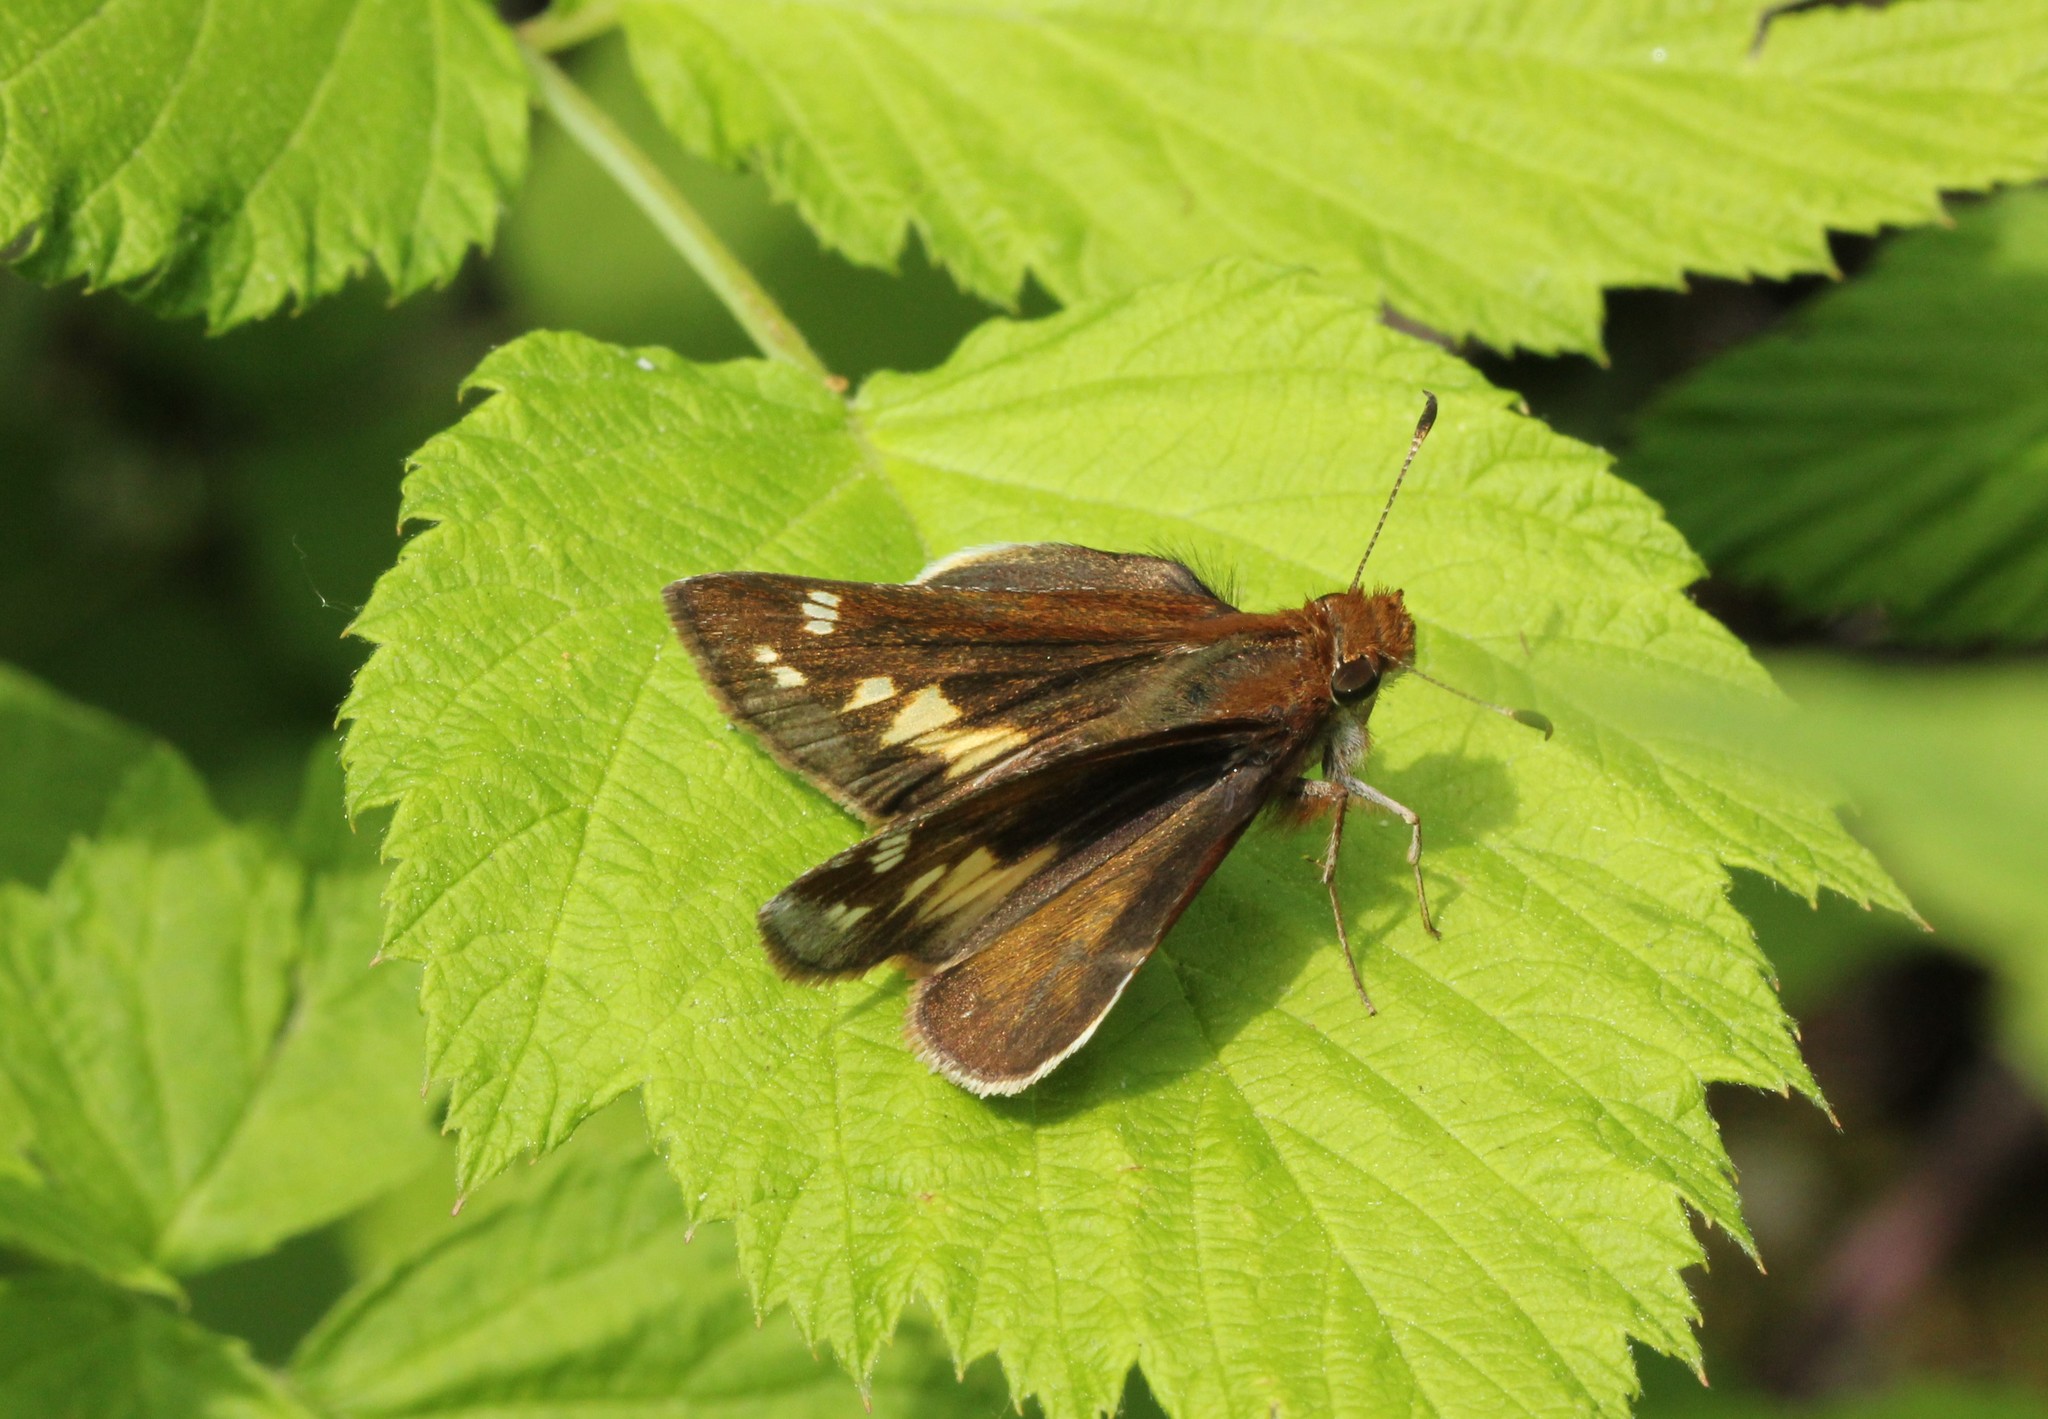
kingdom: Animalia
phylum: Arthropoda
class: Insecta
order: Lepidoptera
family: Hesperiidae
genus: Lon
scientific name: Lon zabulon
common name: Zabulon skipper
